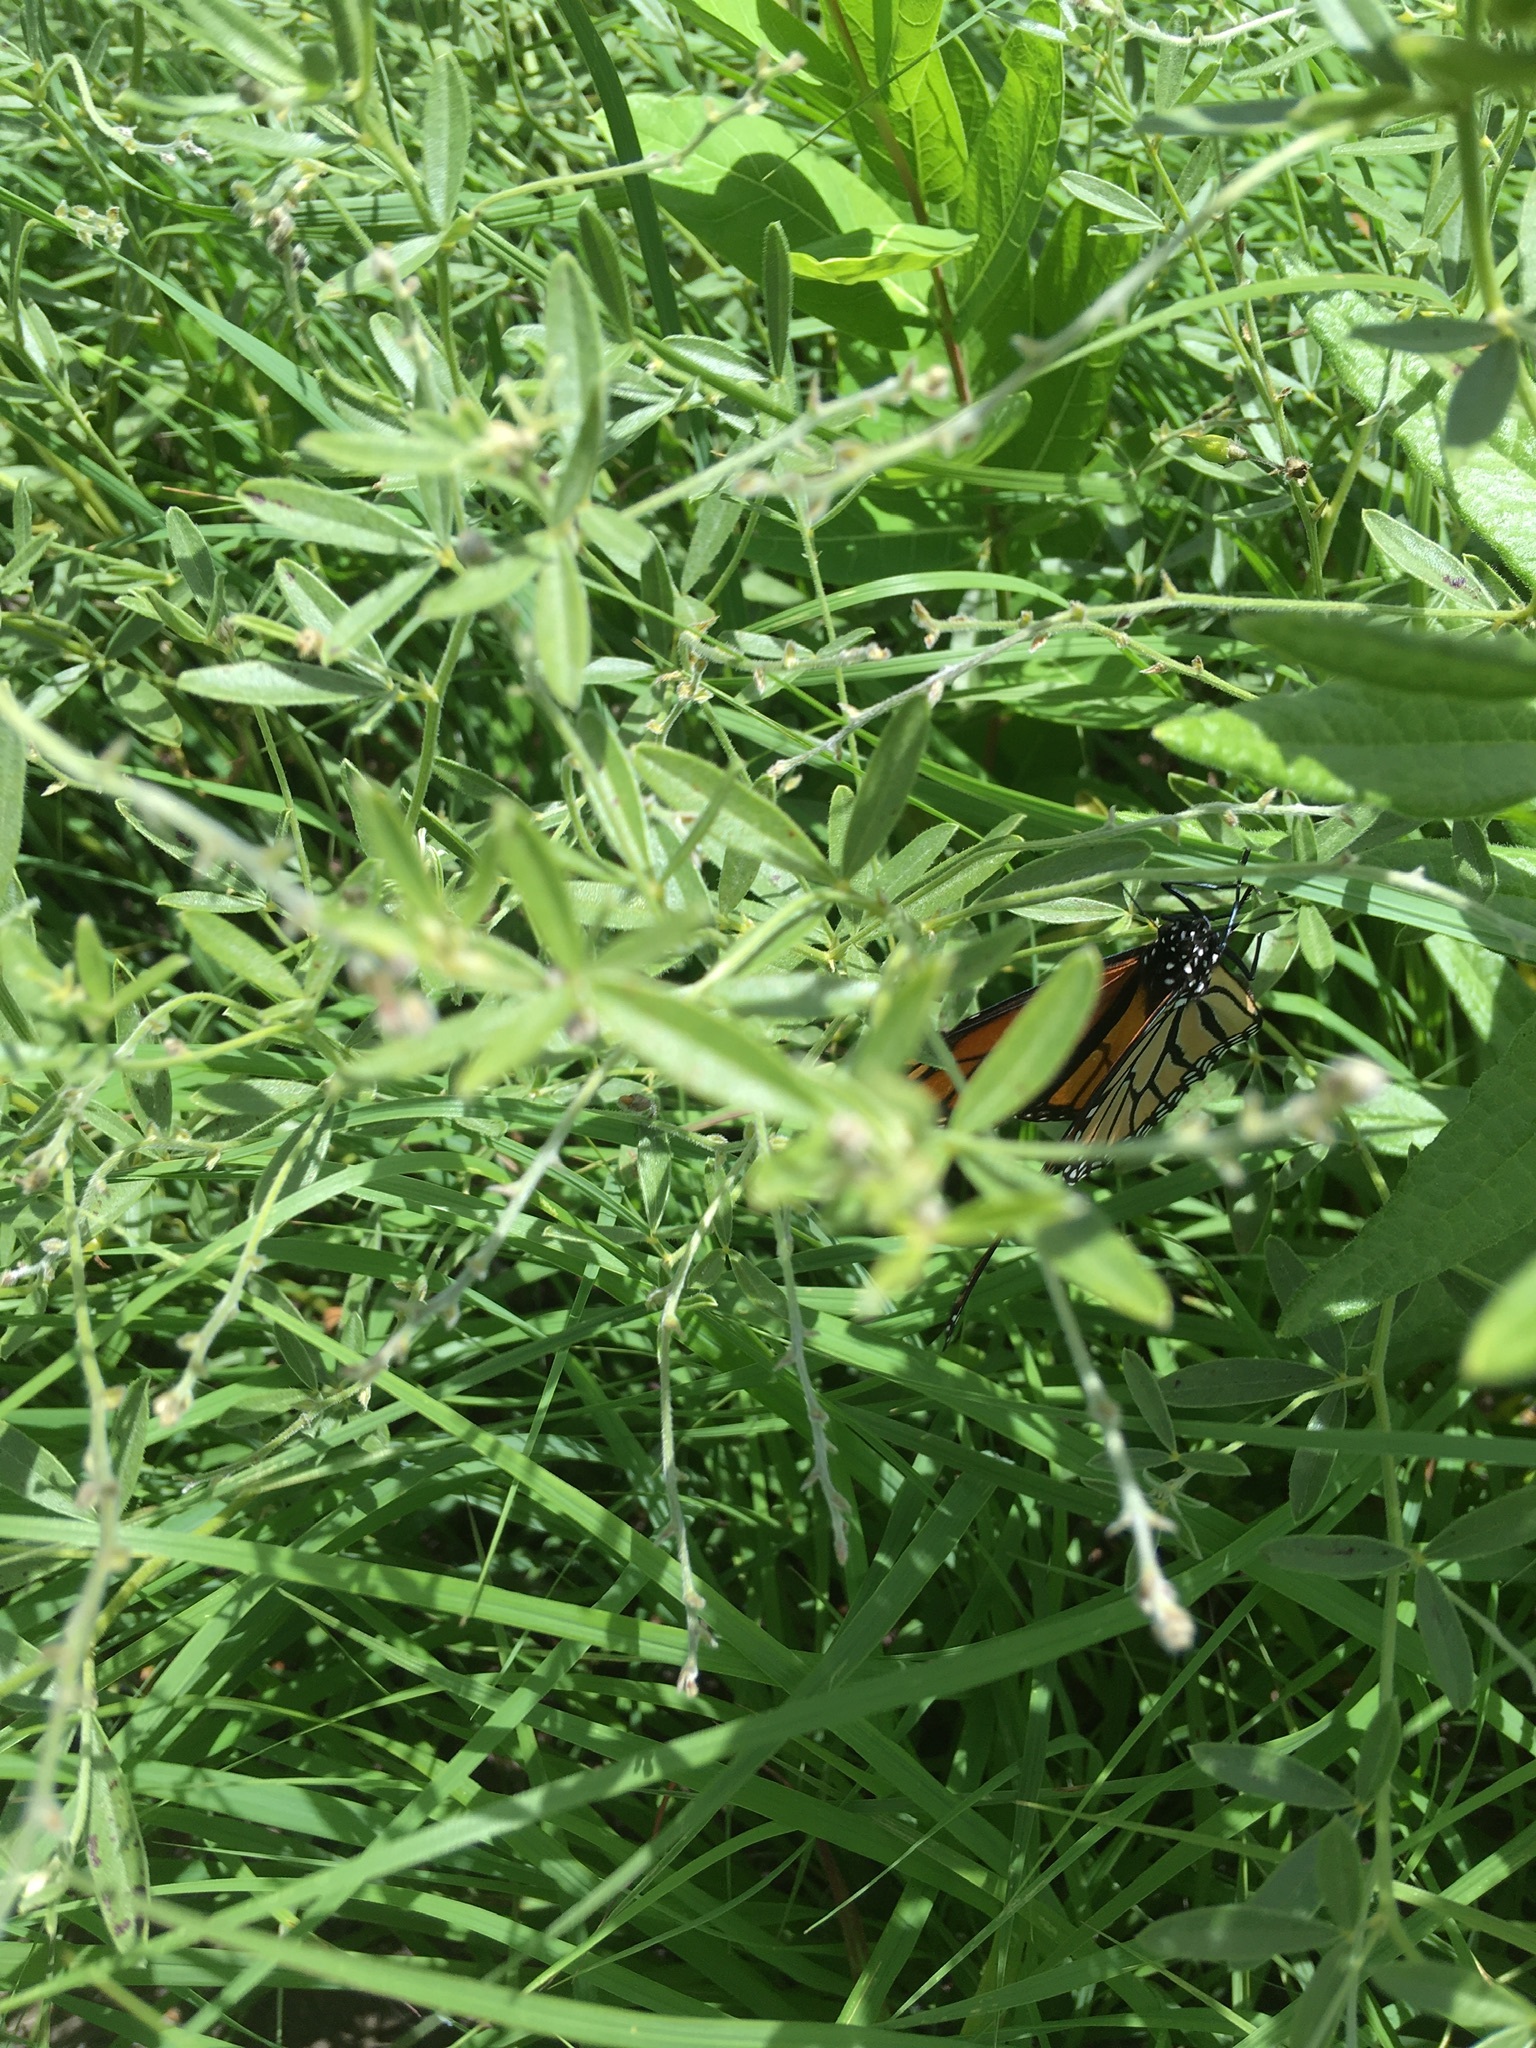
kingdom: Animalia
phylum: Arthropoda
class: Insecta
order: Lepidoptera
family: Nymphalidae
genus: Danaus
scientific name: Danaus plexippus
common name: Monarch
